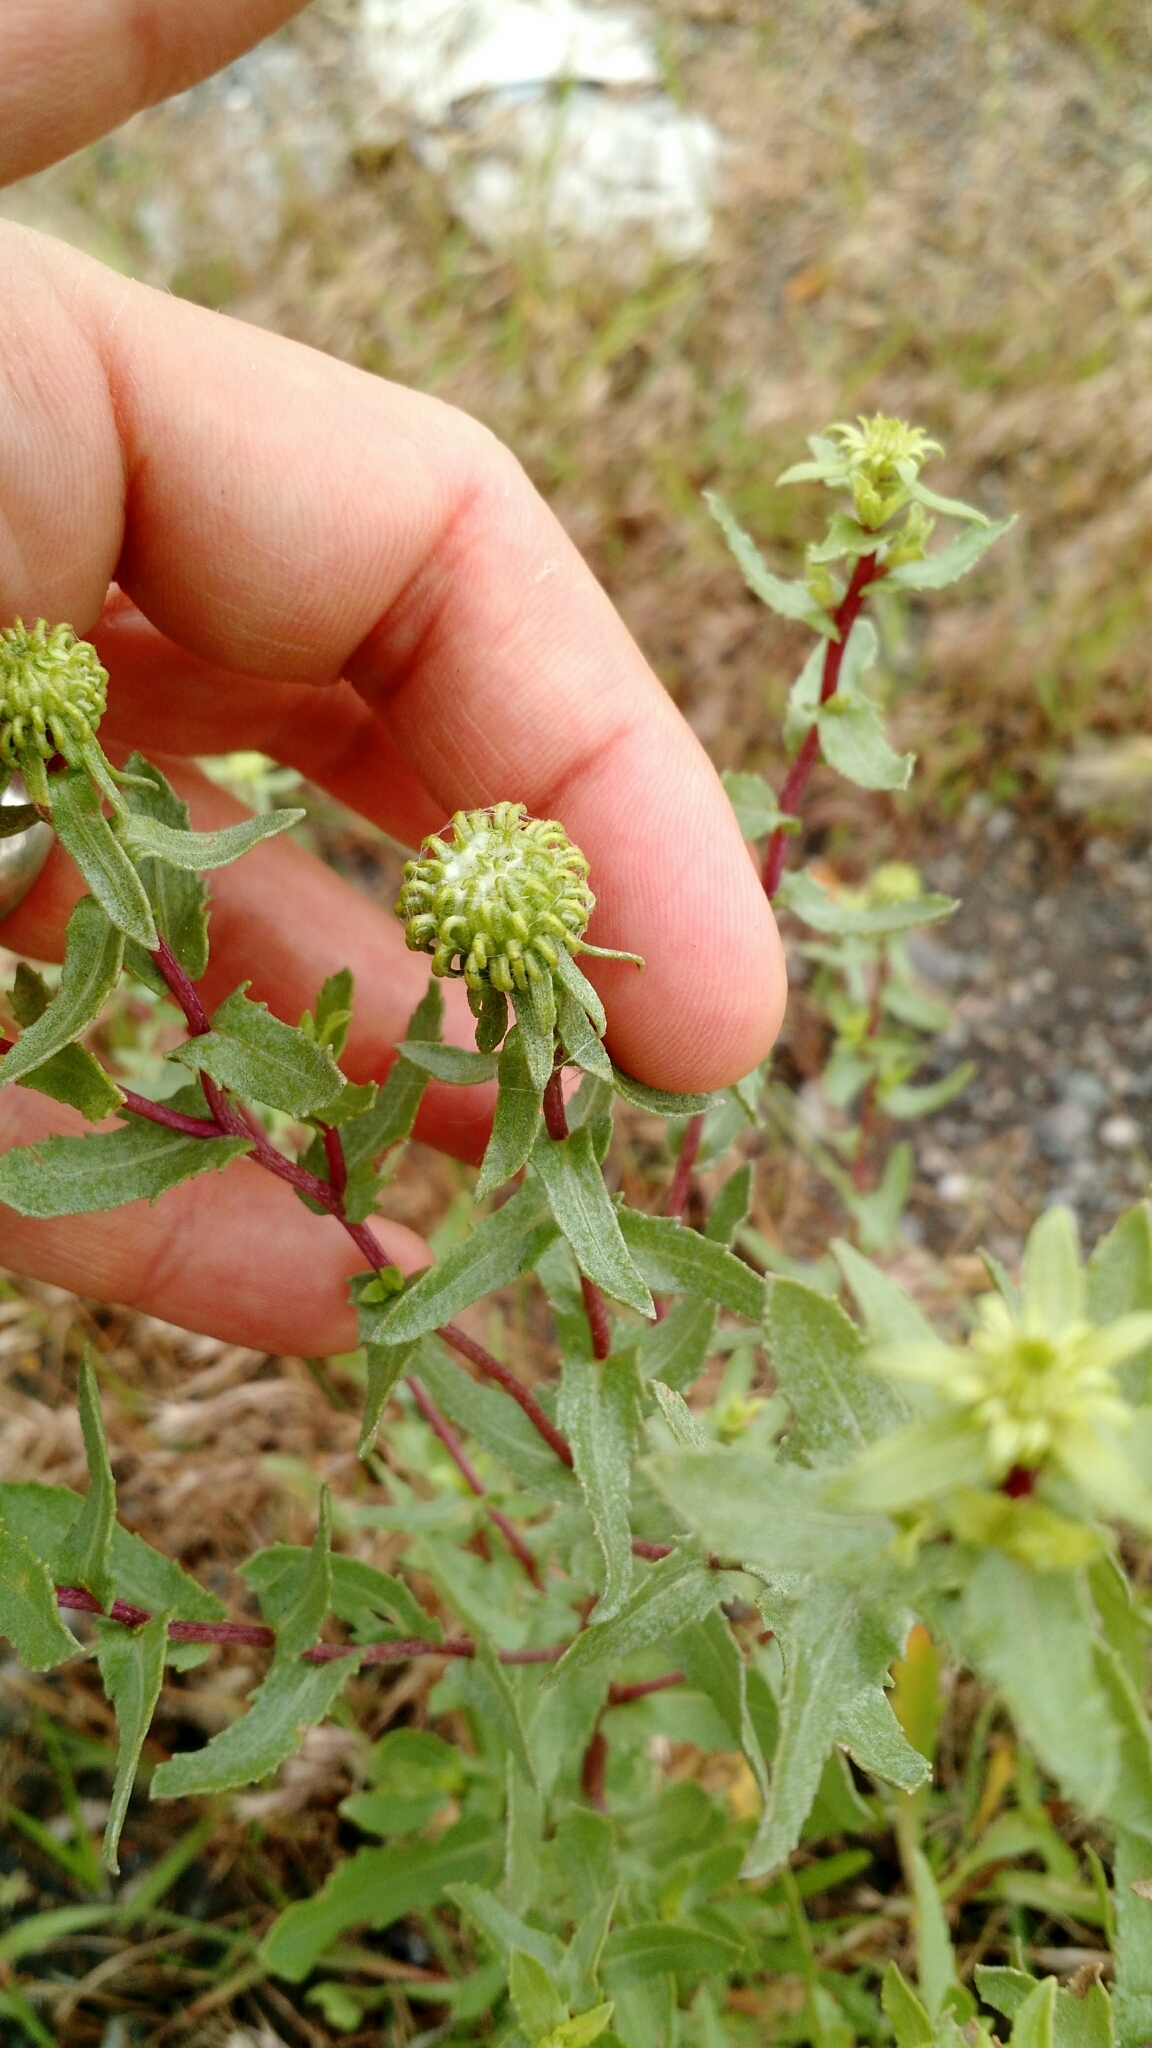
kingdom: Plantae
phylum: Tracheophyta
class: Magnoliopsida
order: Asterales
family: Asteraceae
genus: Grindelia
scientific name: Grindelia squarrosa
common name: Curly-cup gumweed
